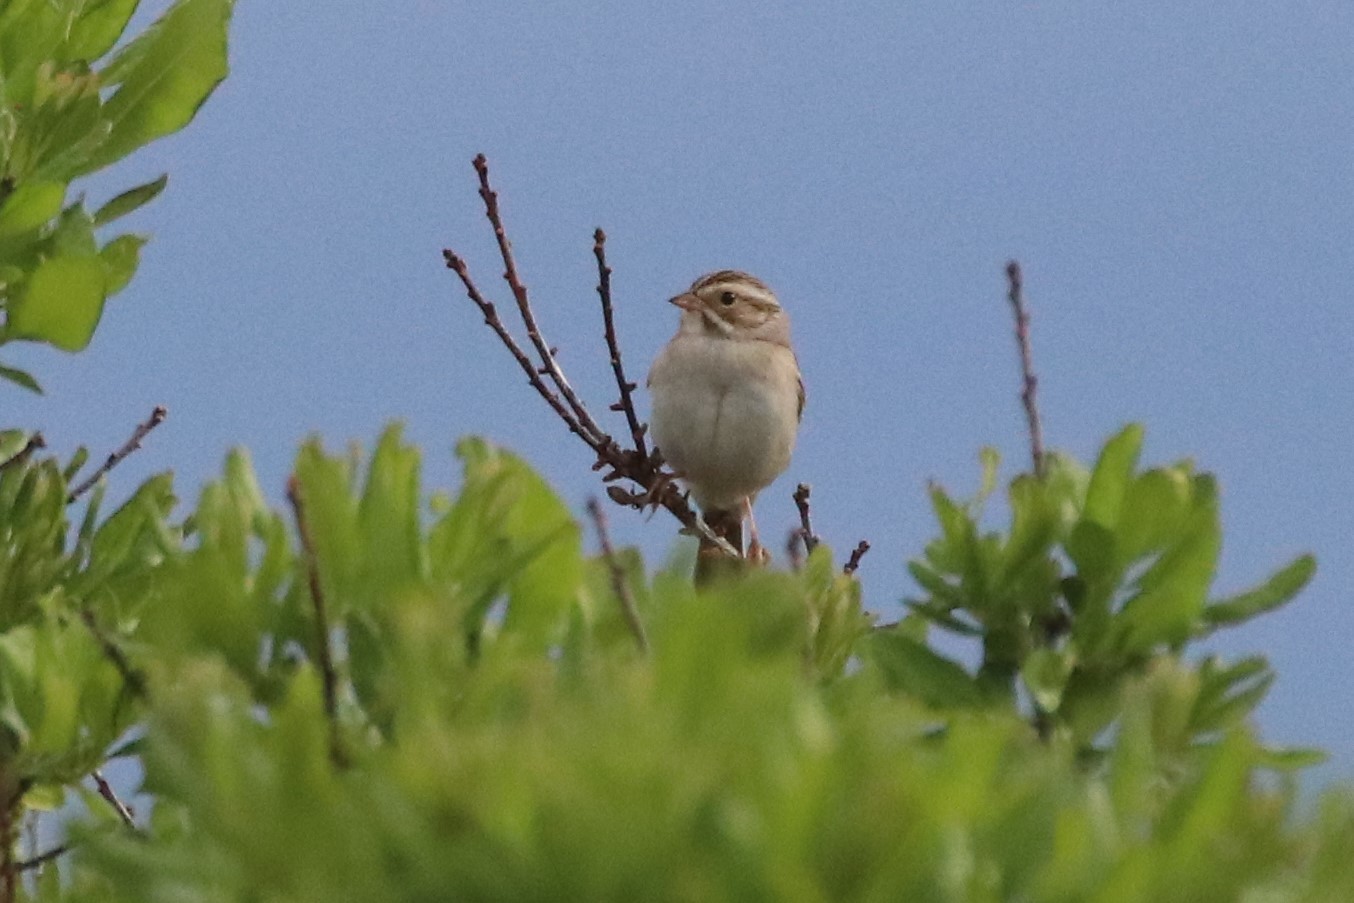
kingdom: Animalia
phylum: Chordata
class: Aves
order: Passeriformes
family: Passerellidae
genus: Spizella
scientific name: Spizella pallida
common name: Clay-colored sparrow
